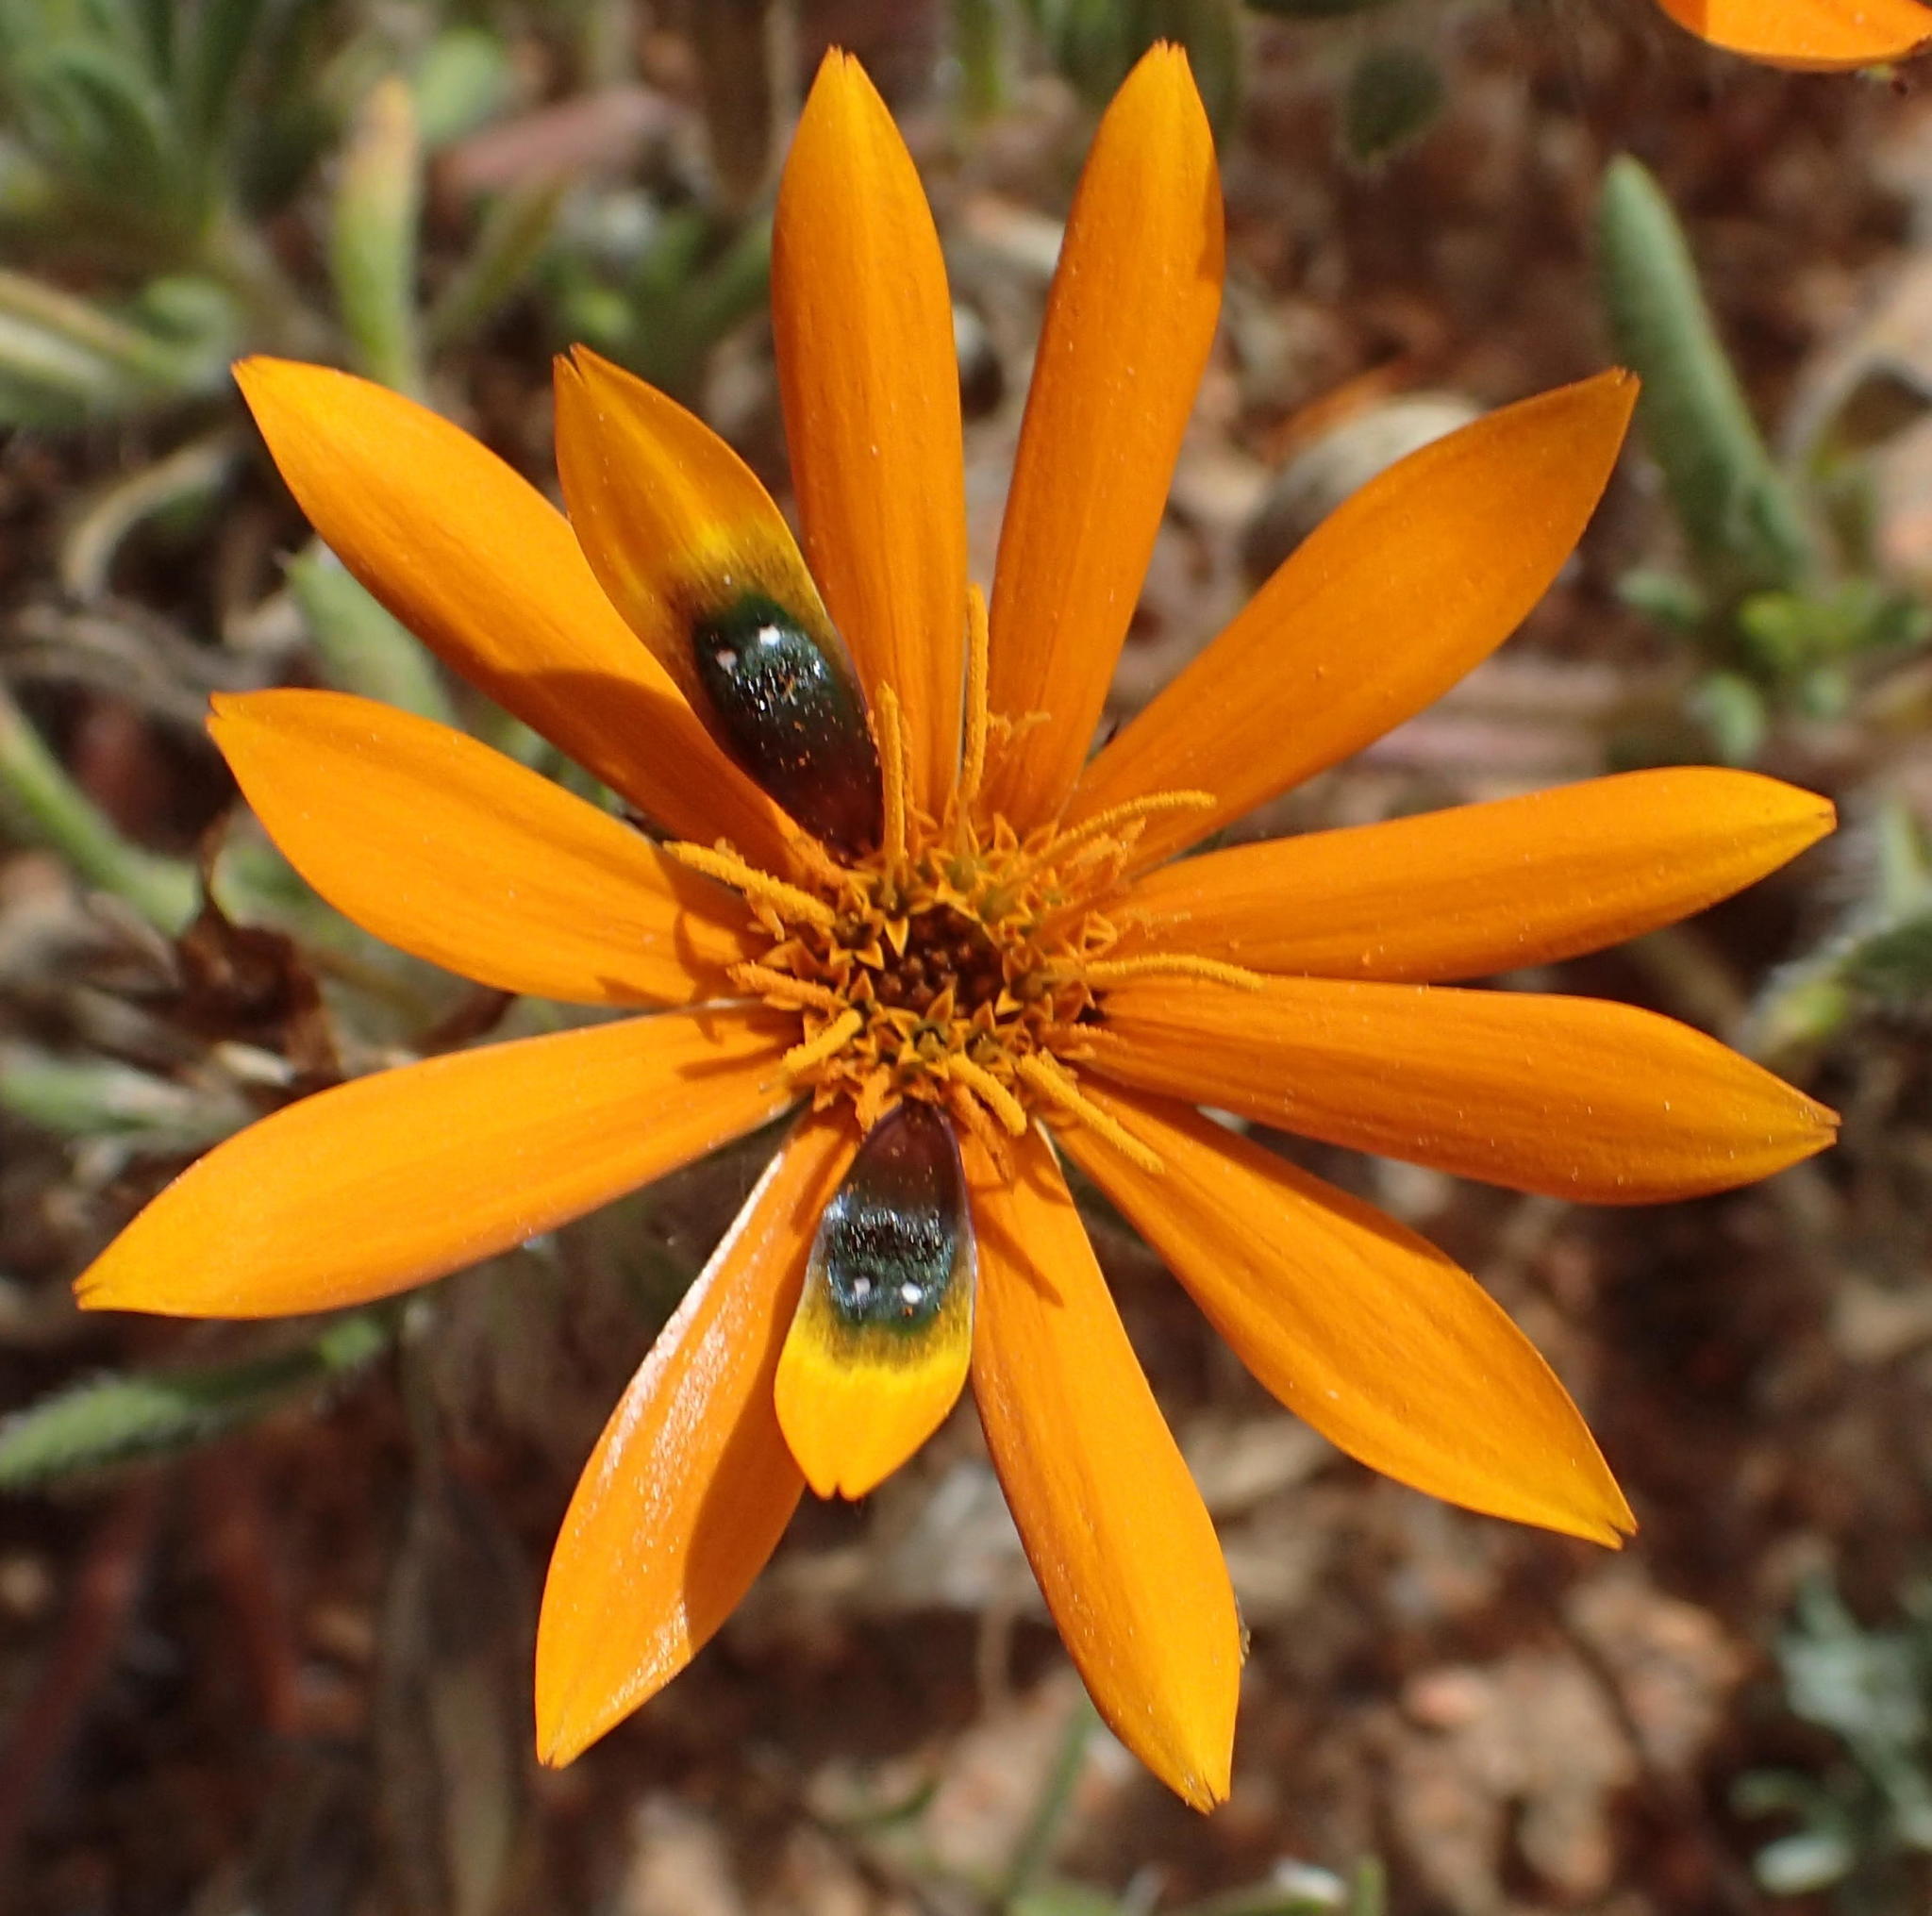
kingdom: Plantae
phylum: Tracheophyta
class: Magnoliopsida
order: Asterales
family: Asteraceae
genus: Gorteria
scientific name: Gorteria diffusa
